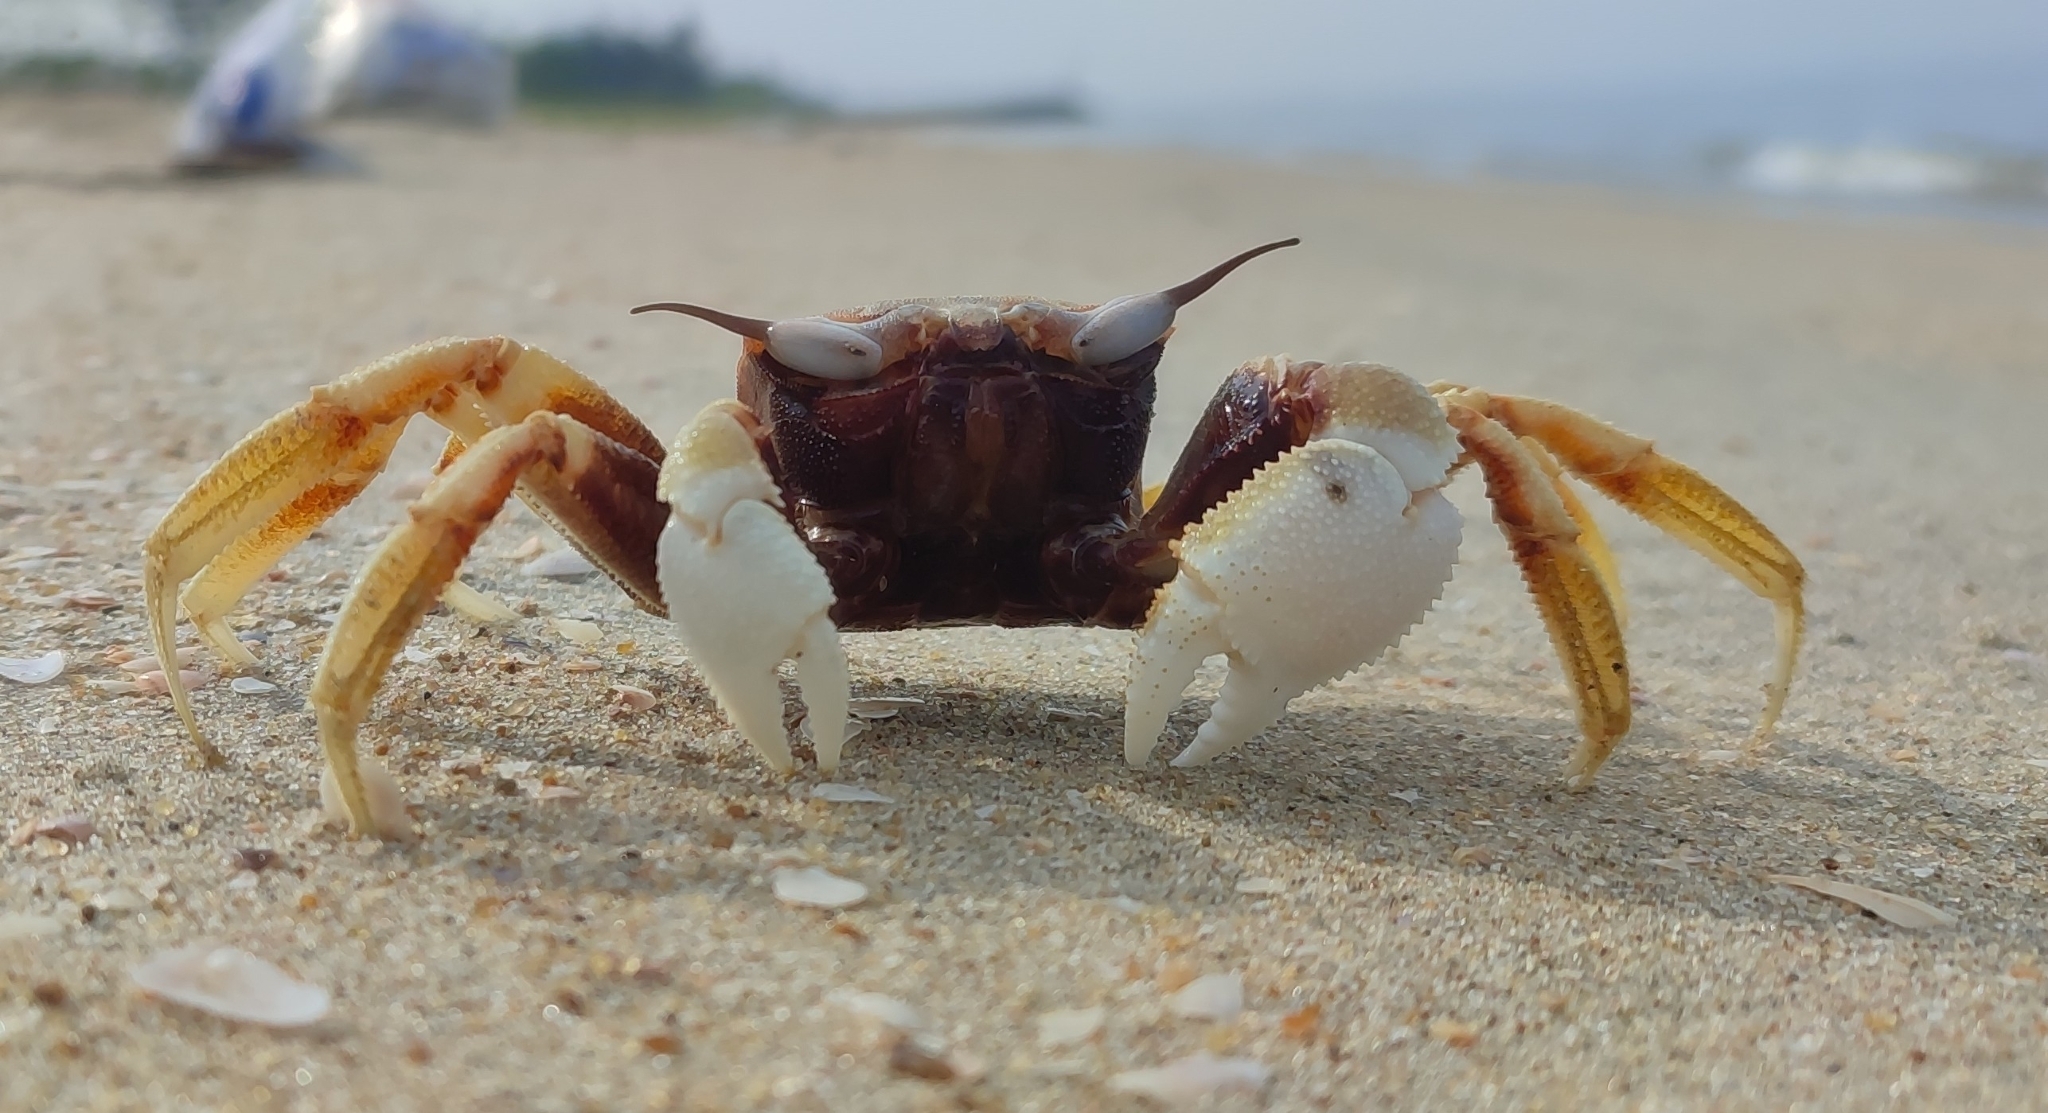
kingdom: Animalia
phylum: Arthropoda
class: Malacostraca
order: Decapoda
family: Ocypodidae
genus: Ocypode
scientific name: Ocypode ceratophthalmus
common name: Indo-pacific ghost crab
